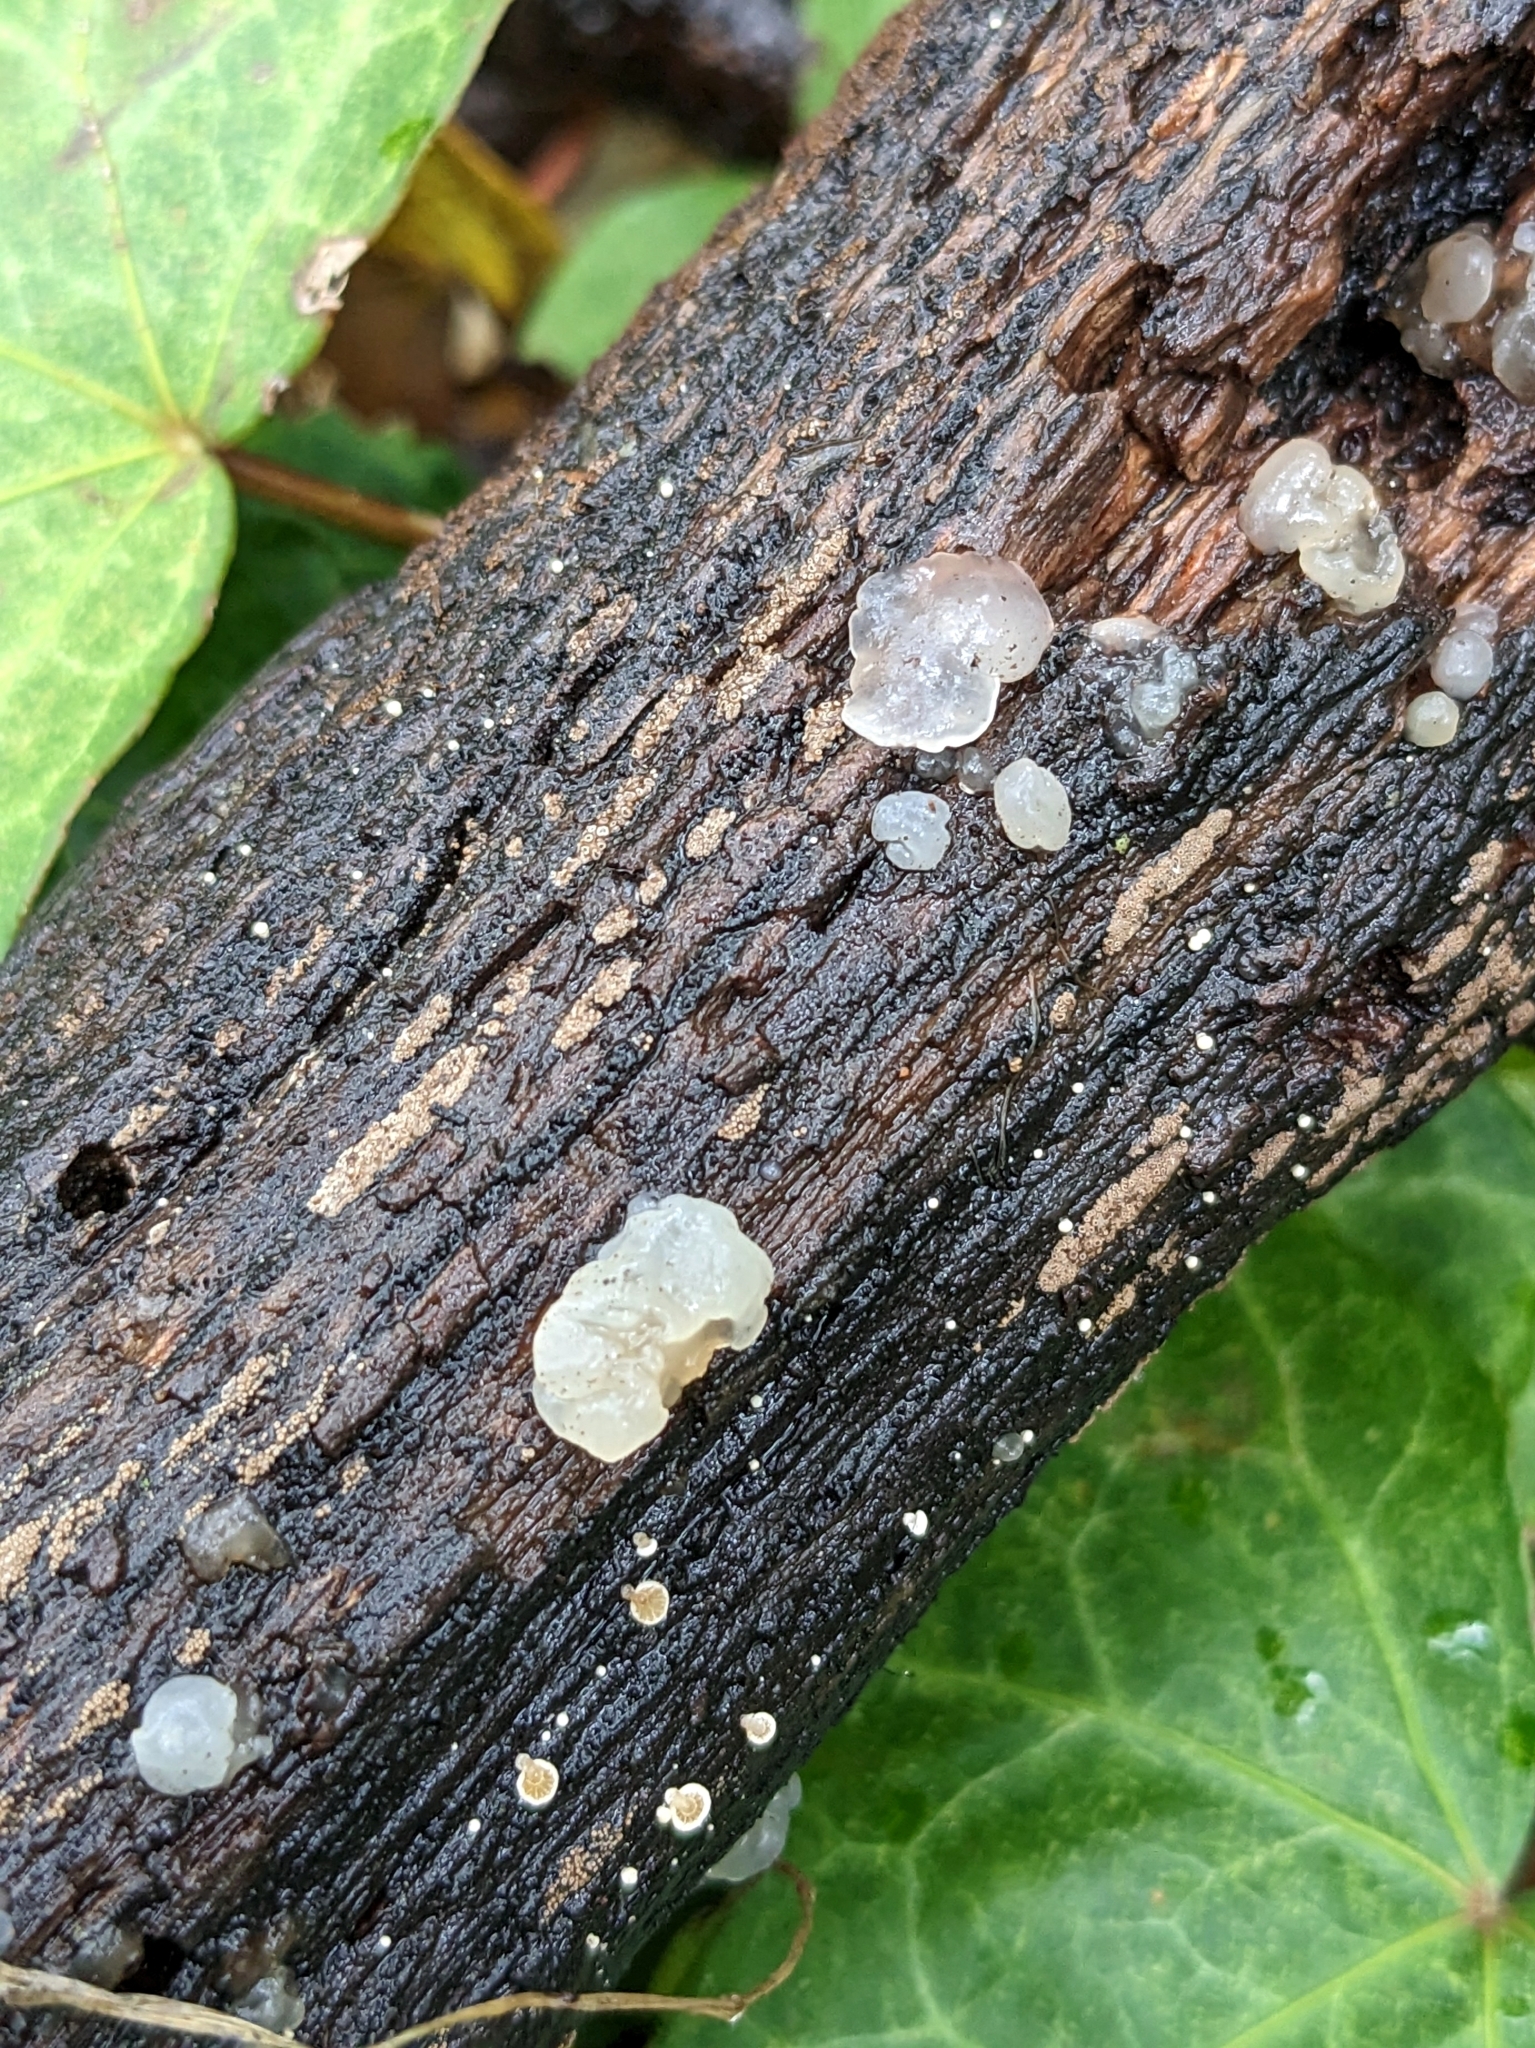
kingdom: Fungi
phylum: Basidiomycota
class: Agaricomycetes
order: Auriculariales
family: Hyaloriaceae
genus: Myxarium
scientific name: Myxarium nucleatum
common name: Crystal brain fungus
